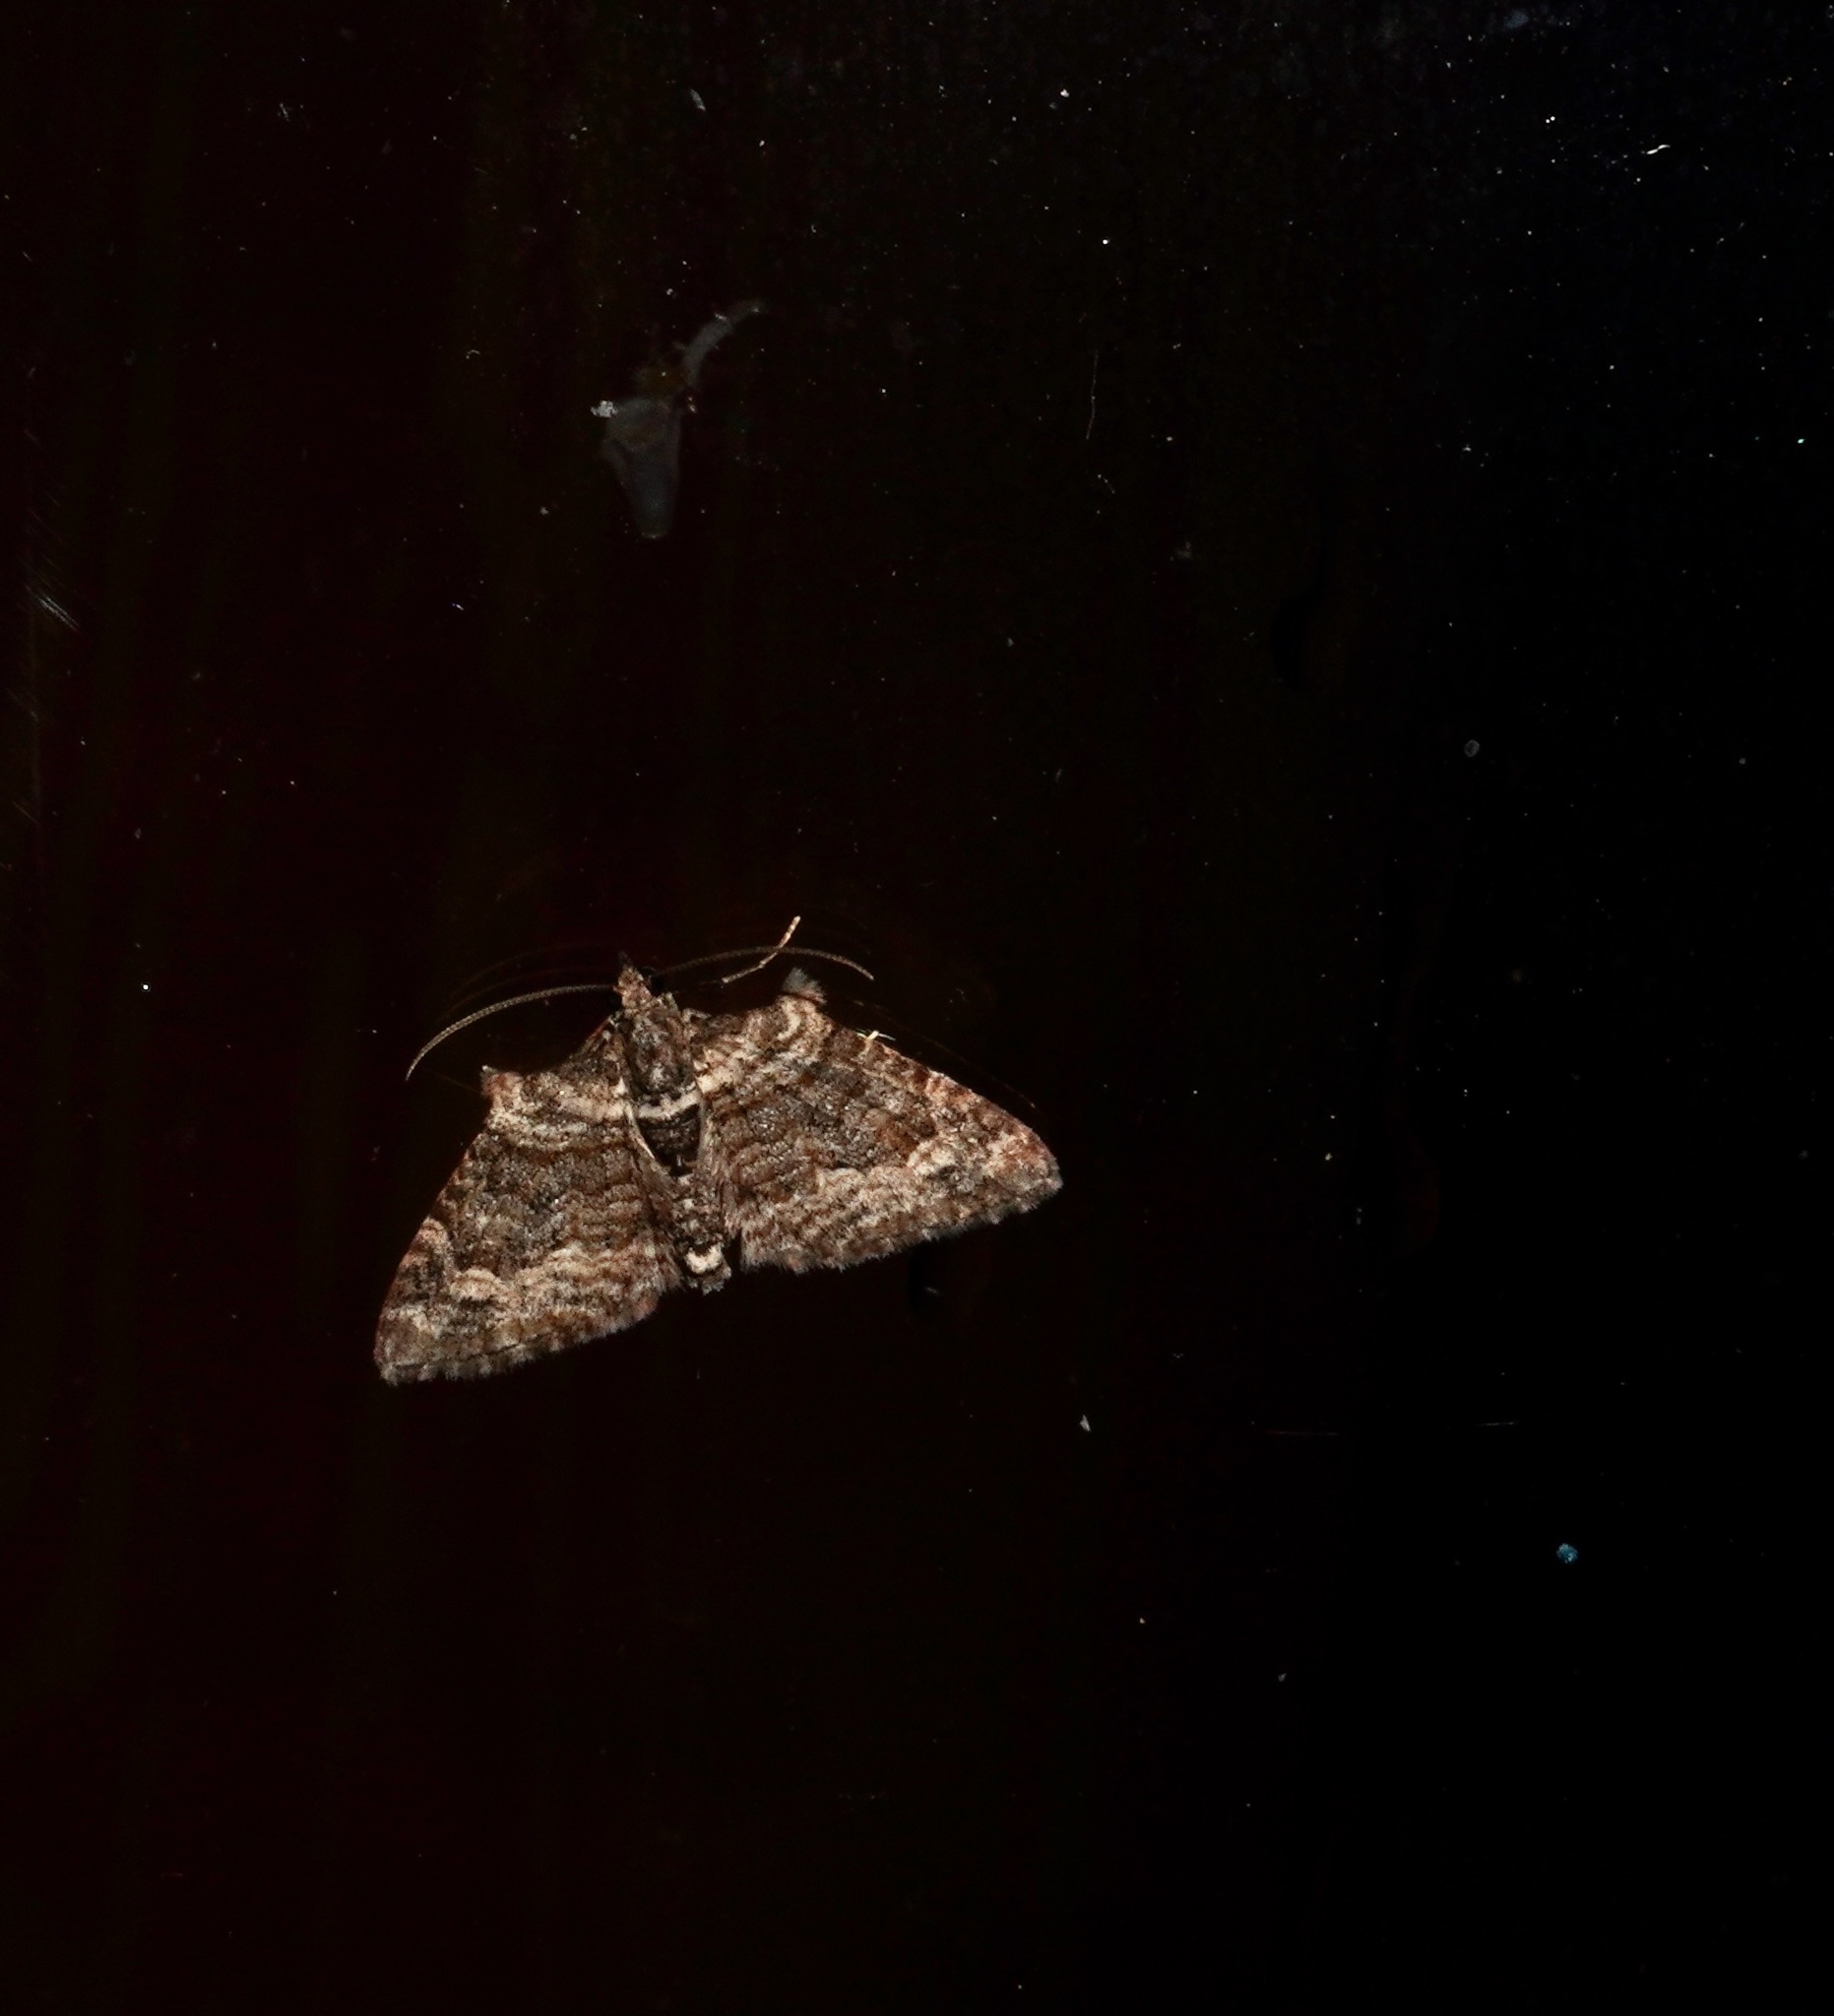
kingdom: Animalia
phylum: Arthropoda
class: Insecta
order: Lepidoptera
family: Geometridae
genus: Phrissogonus
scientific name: Phrissogonus laticostata
